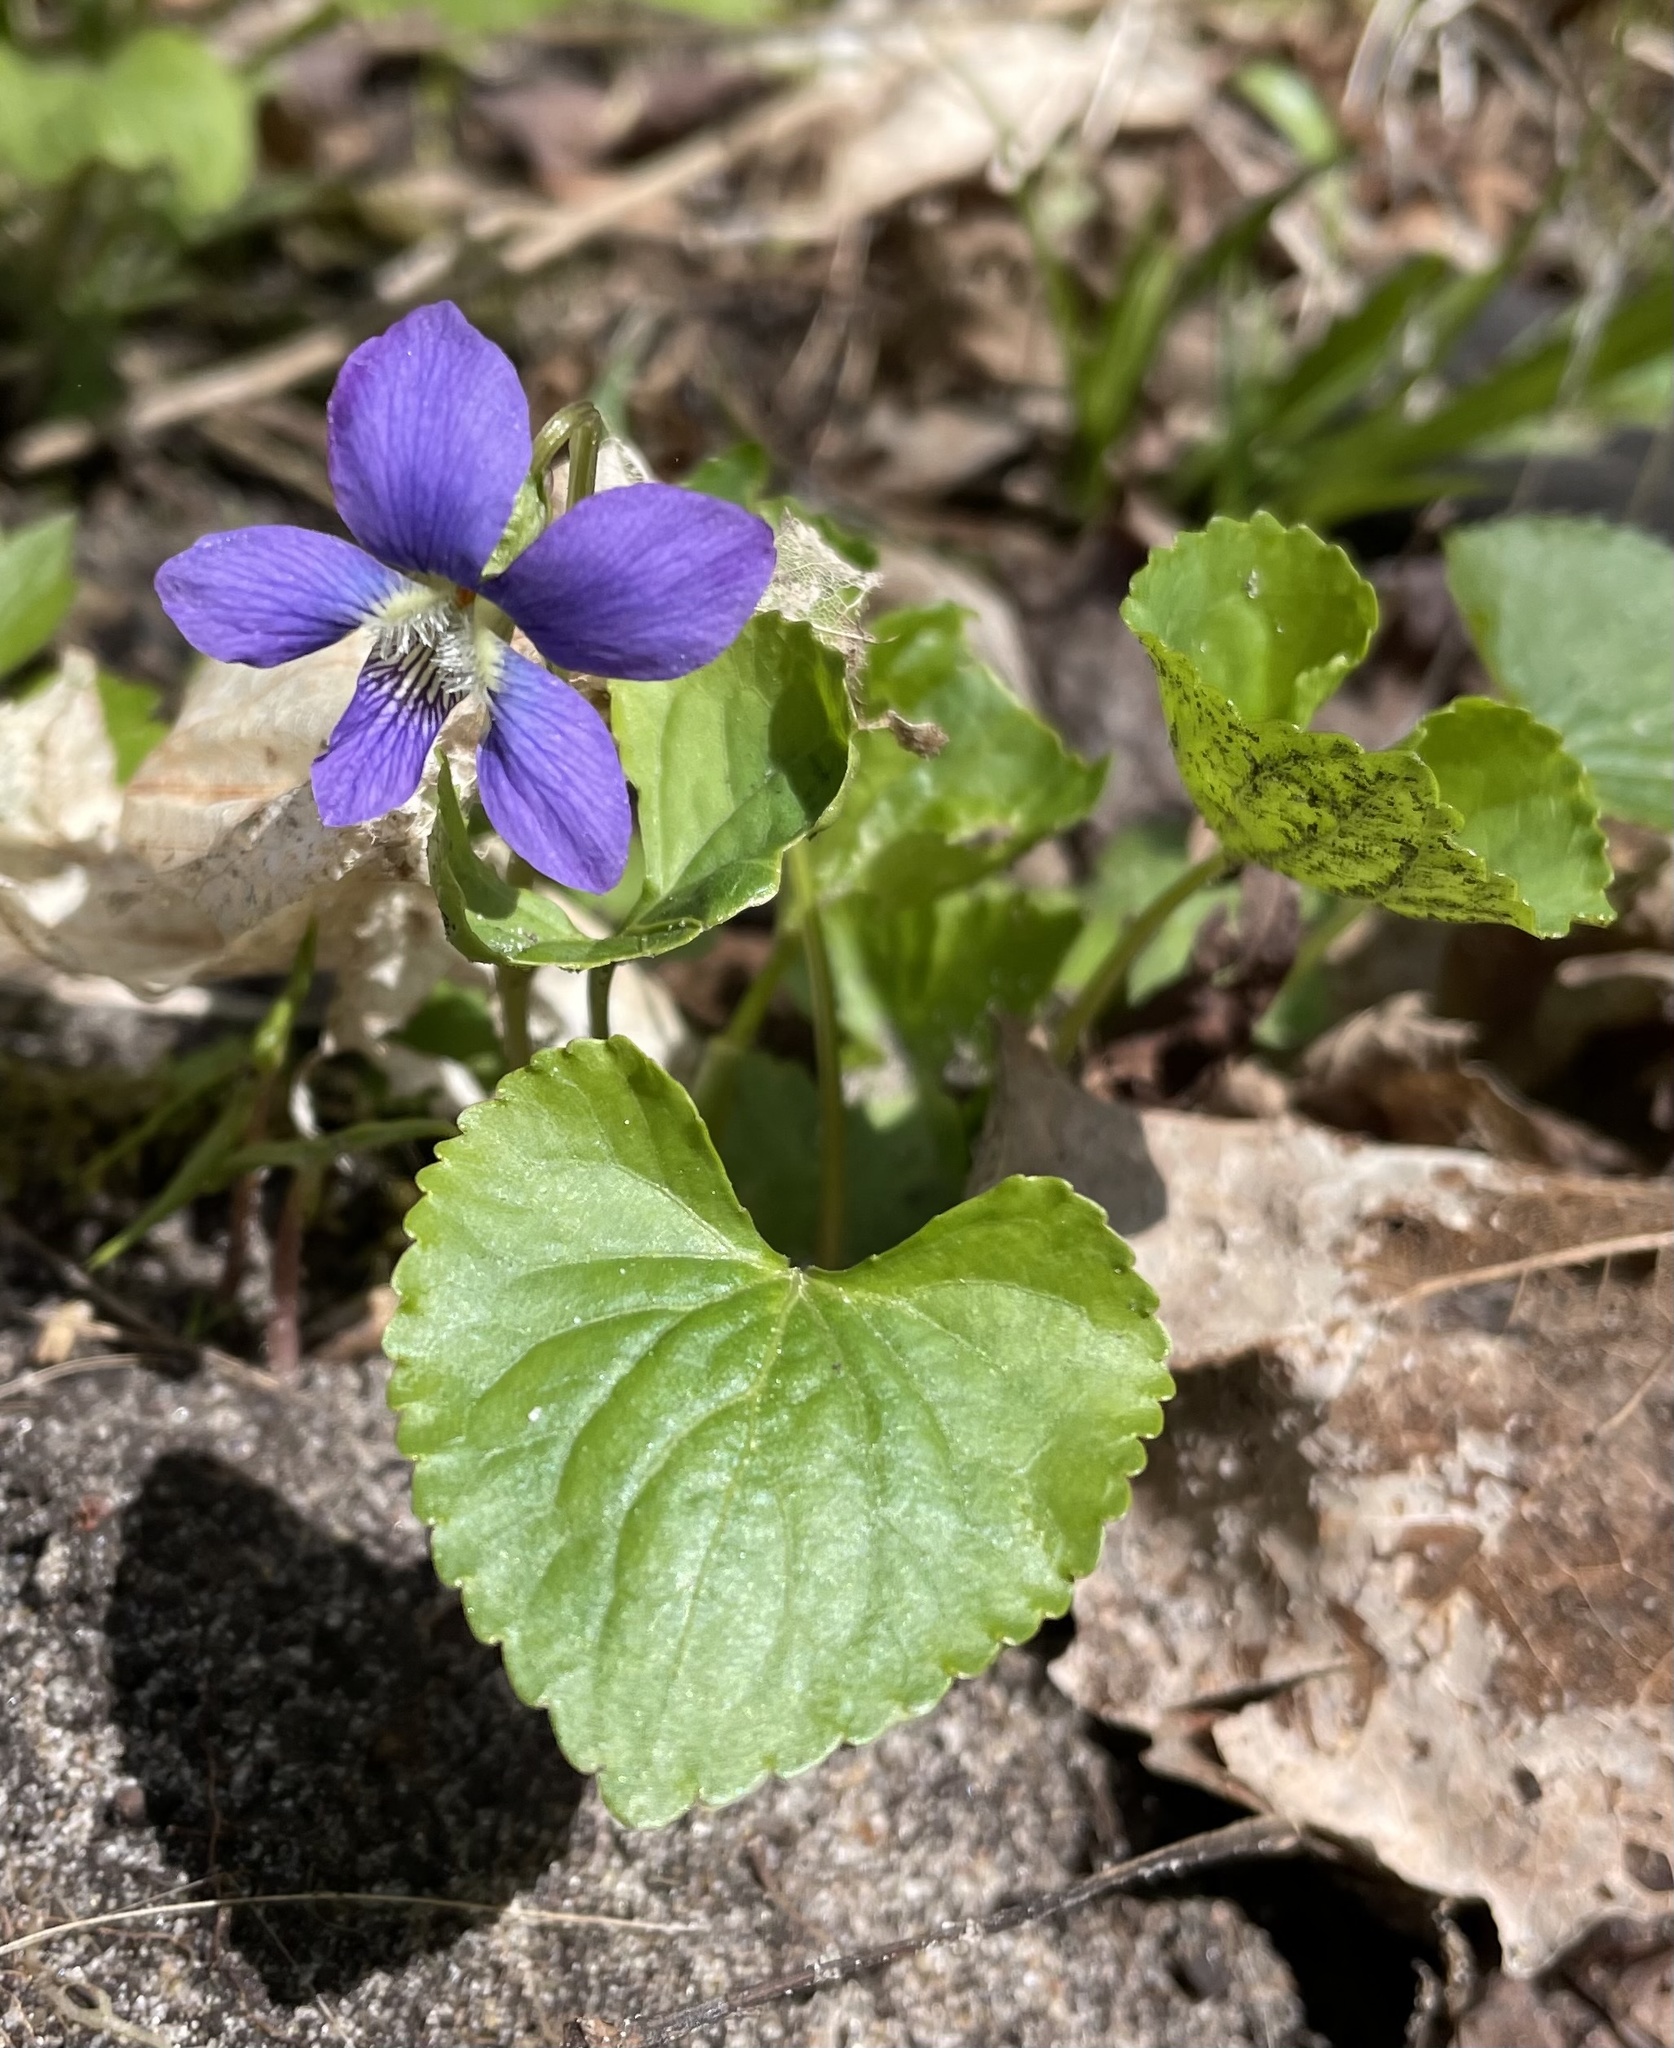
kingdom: Plantae
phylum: Tracheophyta
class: Magnoliopsida
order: Malpighiales
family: Violaceae
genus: Viola
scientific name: Viola sororia
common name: Dooryard violet
